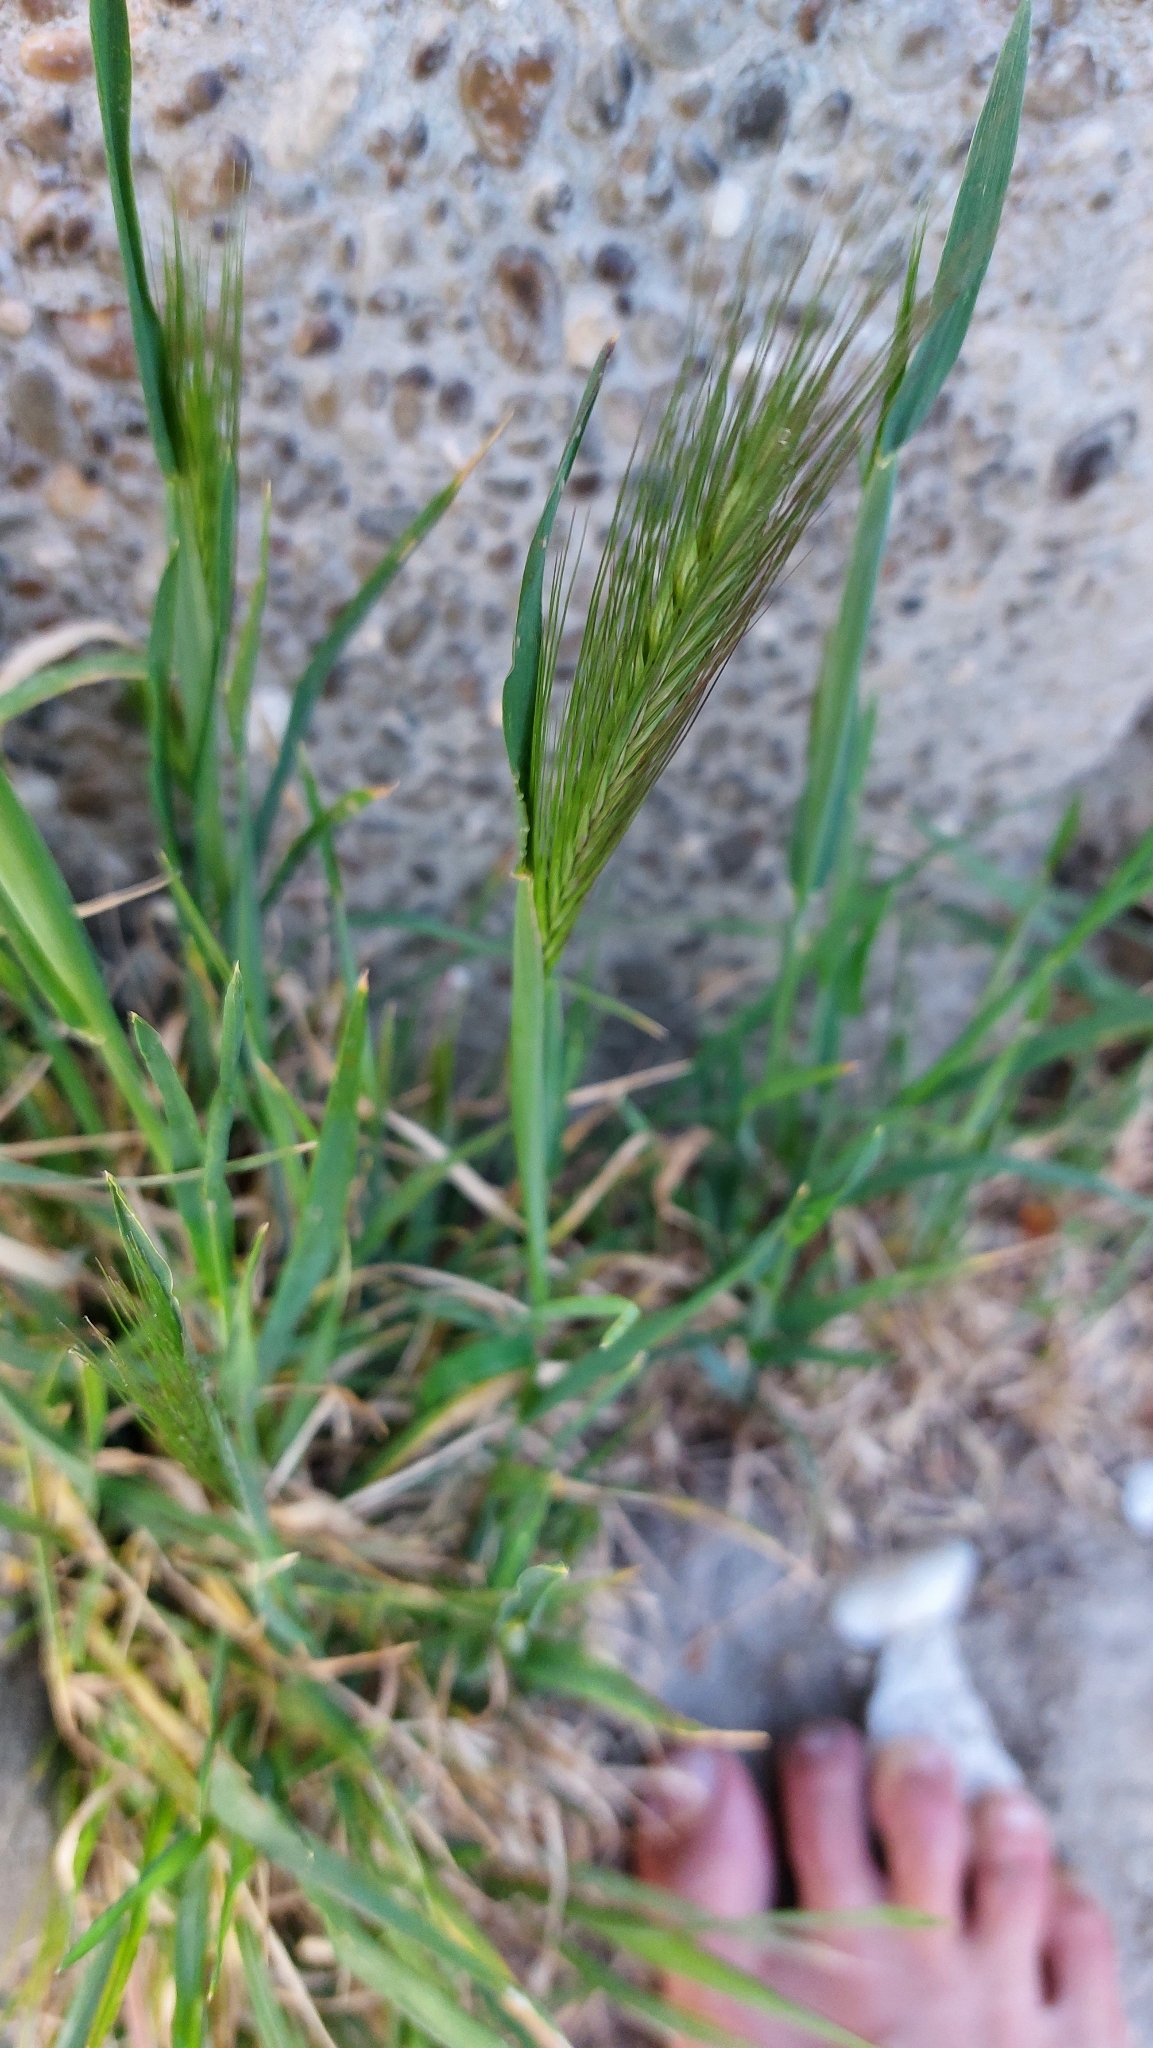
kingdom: Plantae
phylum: Tracheophyta
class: Liliopsida
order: Poales
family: Poaceae
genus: Hordeum
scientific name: Hordeum murinum
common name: Wall barley
